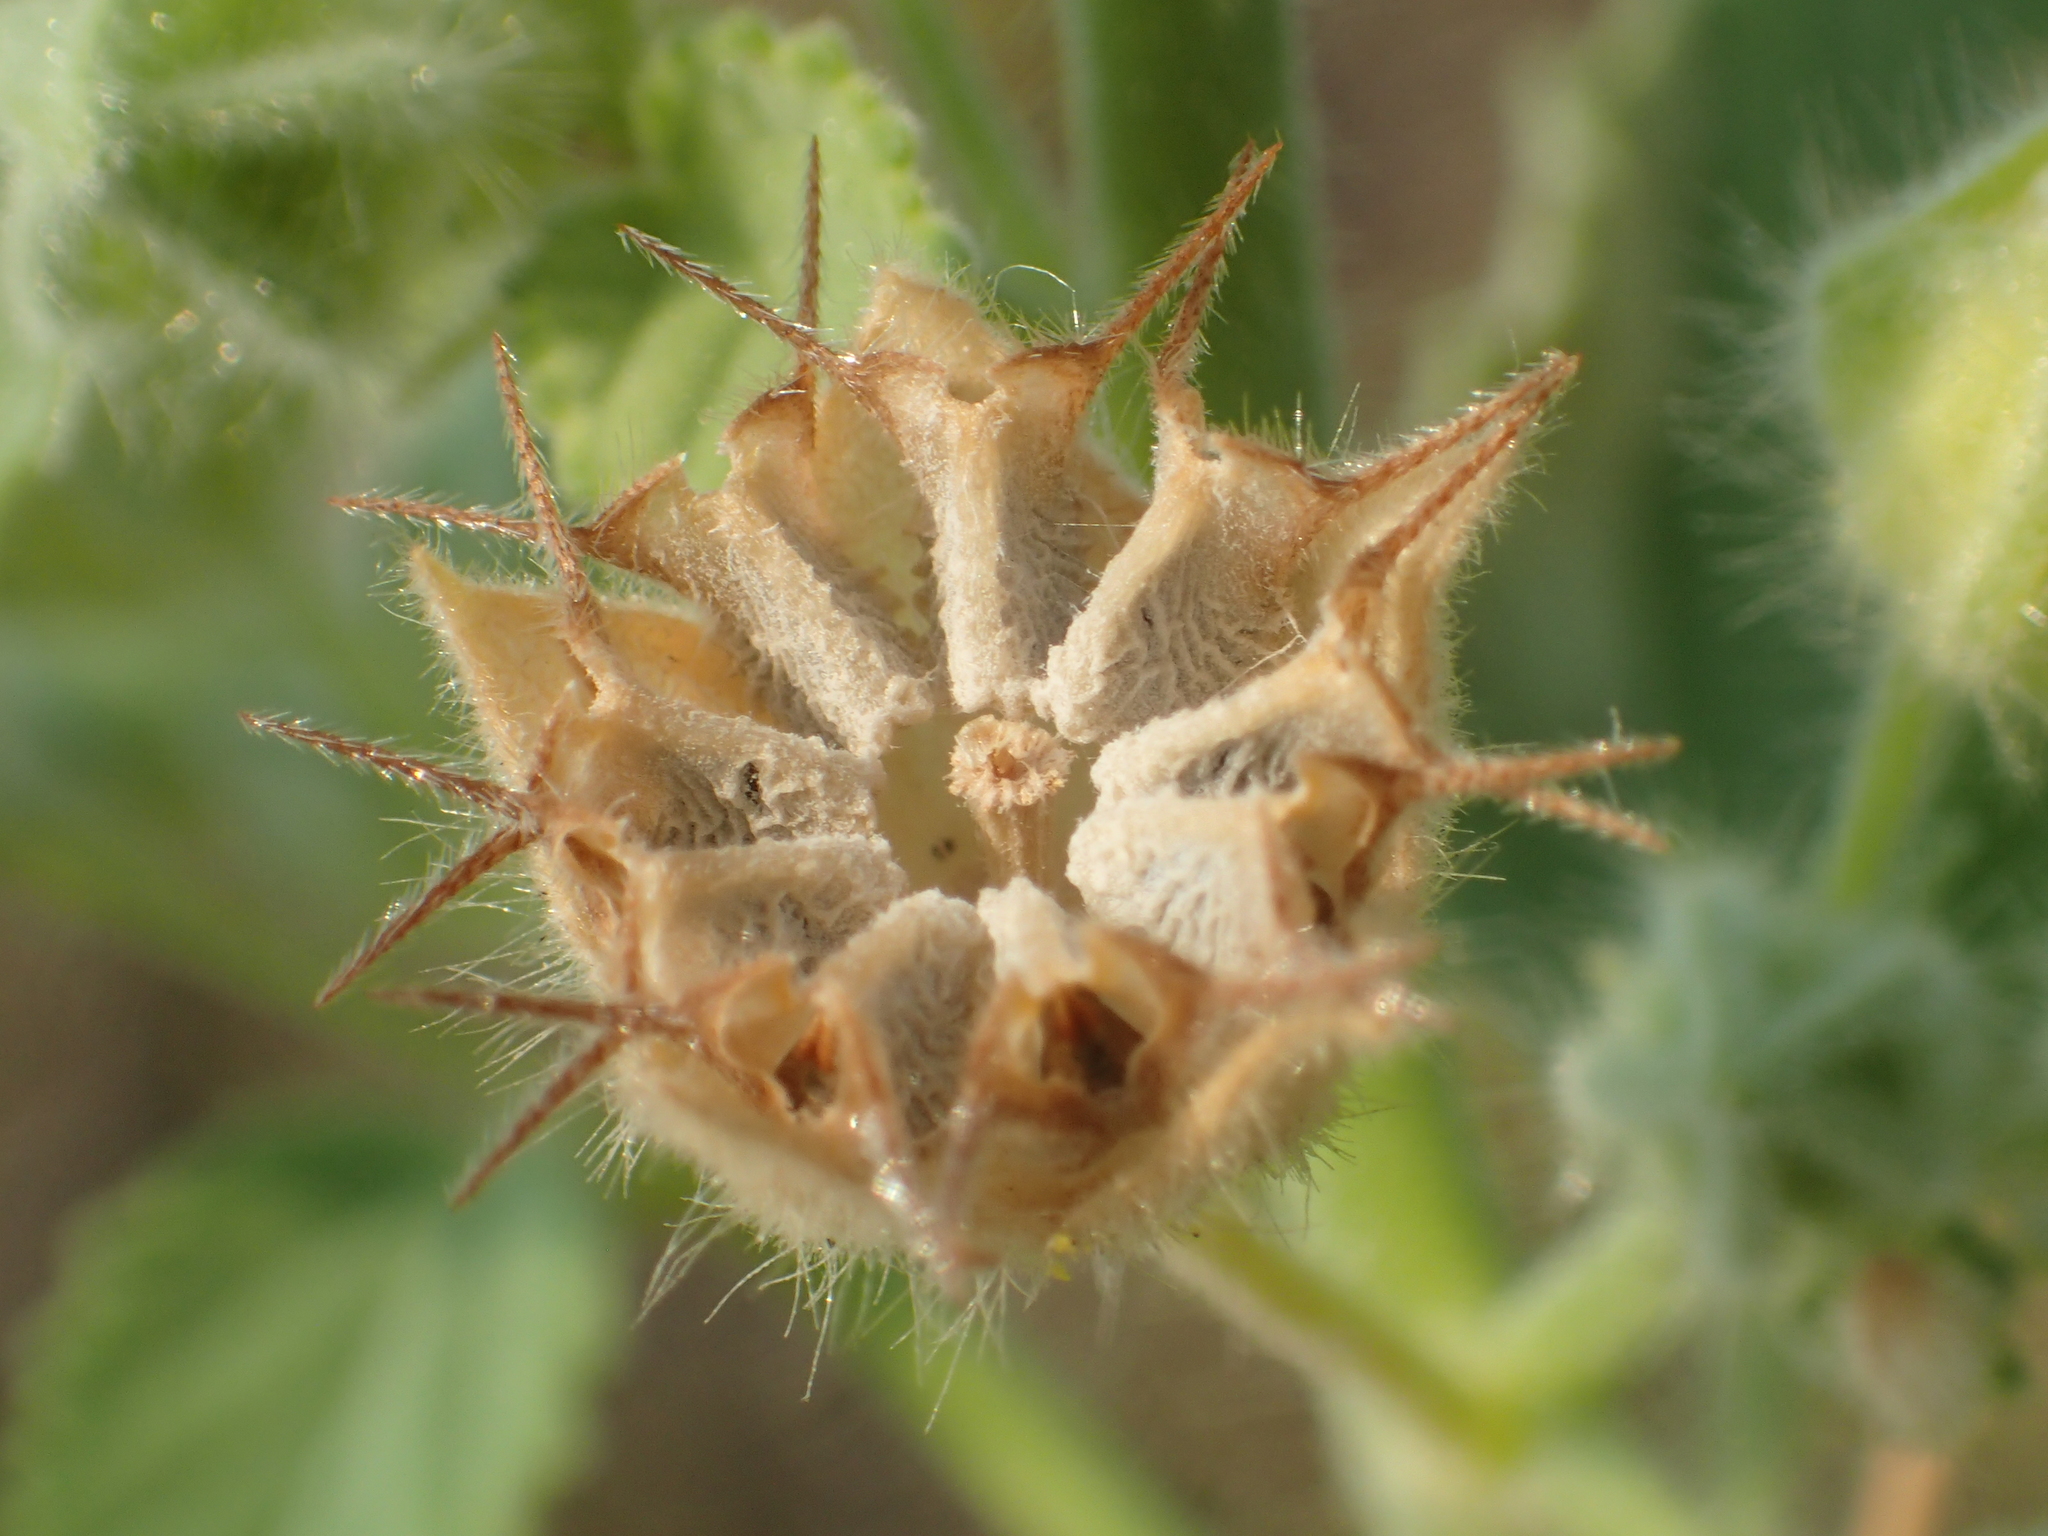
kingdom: Plantae
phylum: Tracheophyta
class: Magnoliopsida
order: Malvales
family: Malvaceae
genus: Sida
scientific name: Sida cordifolia
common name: Ilima
